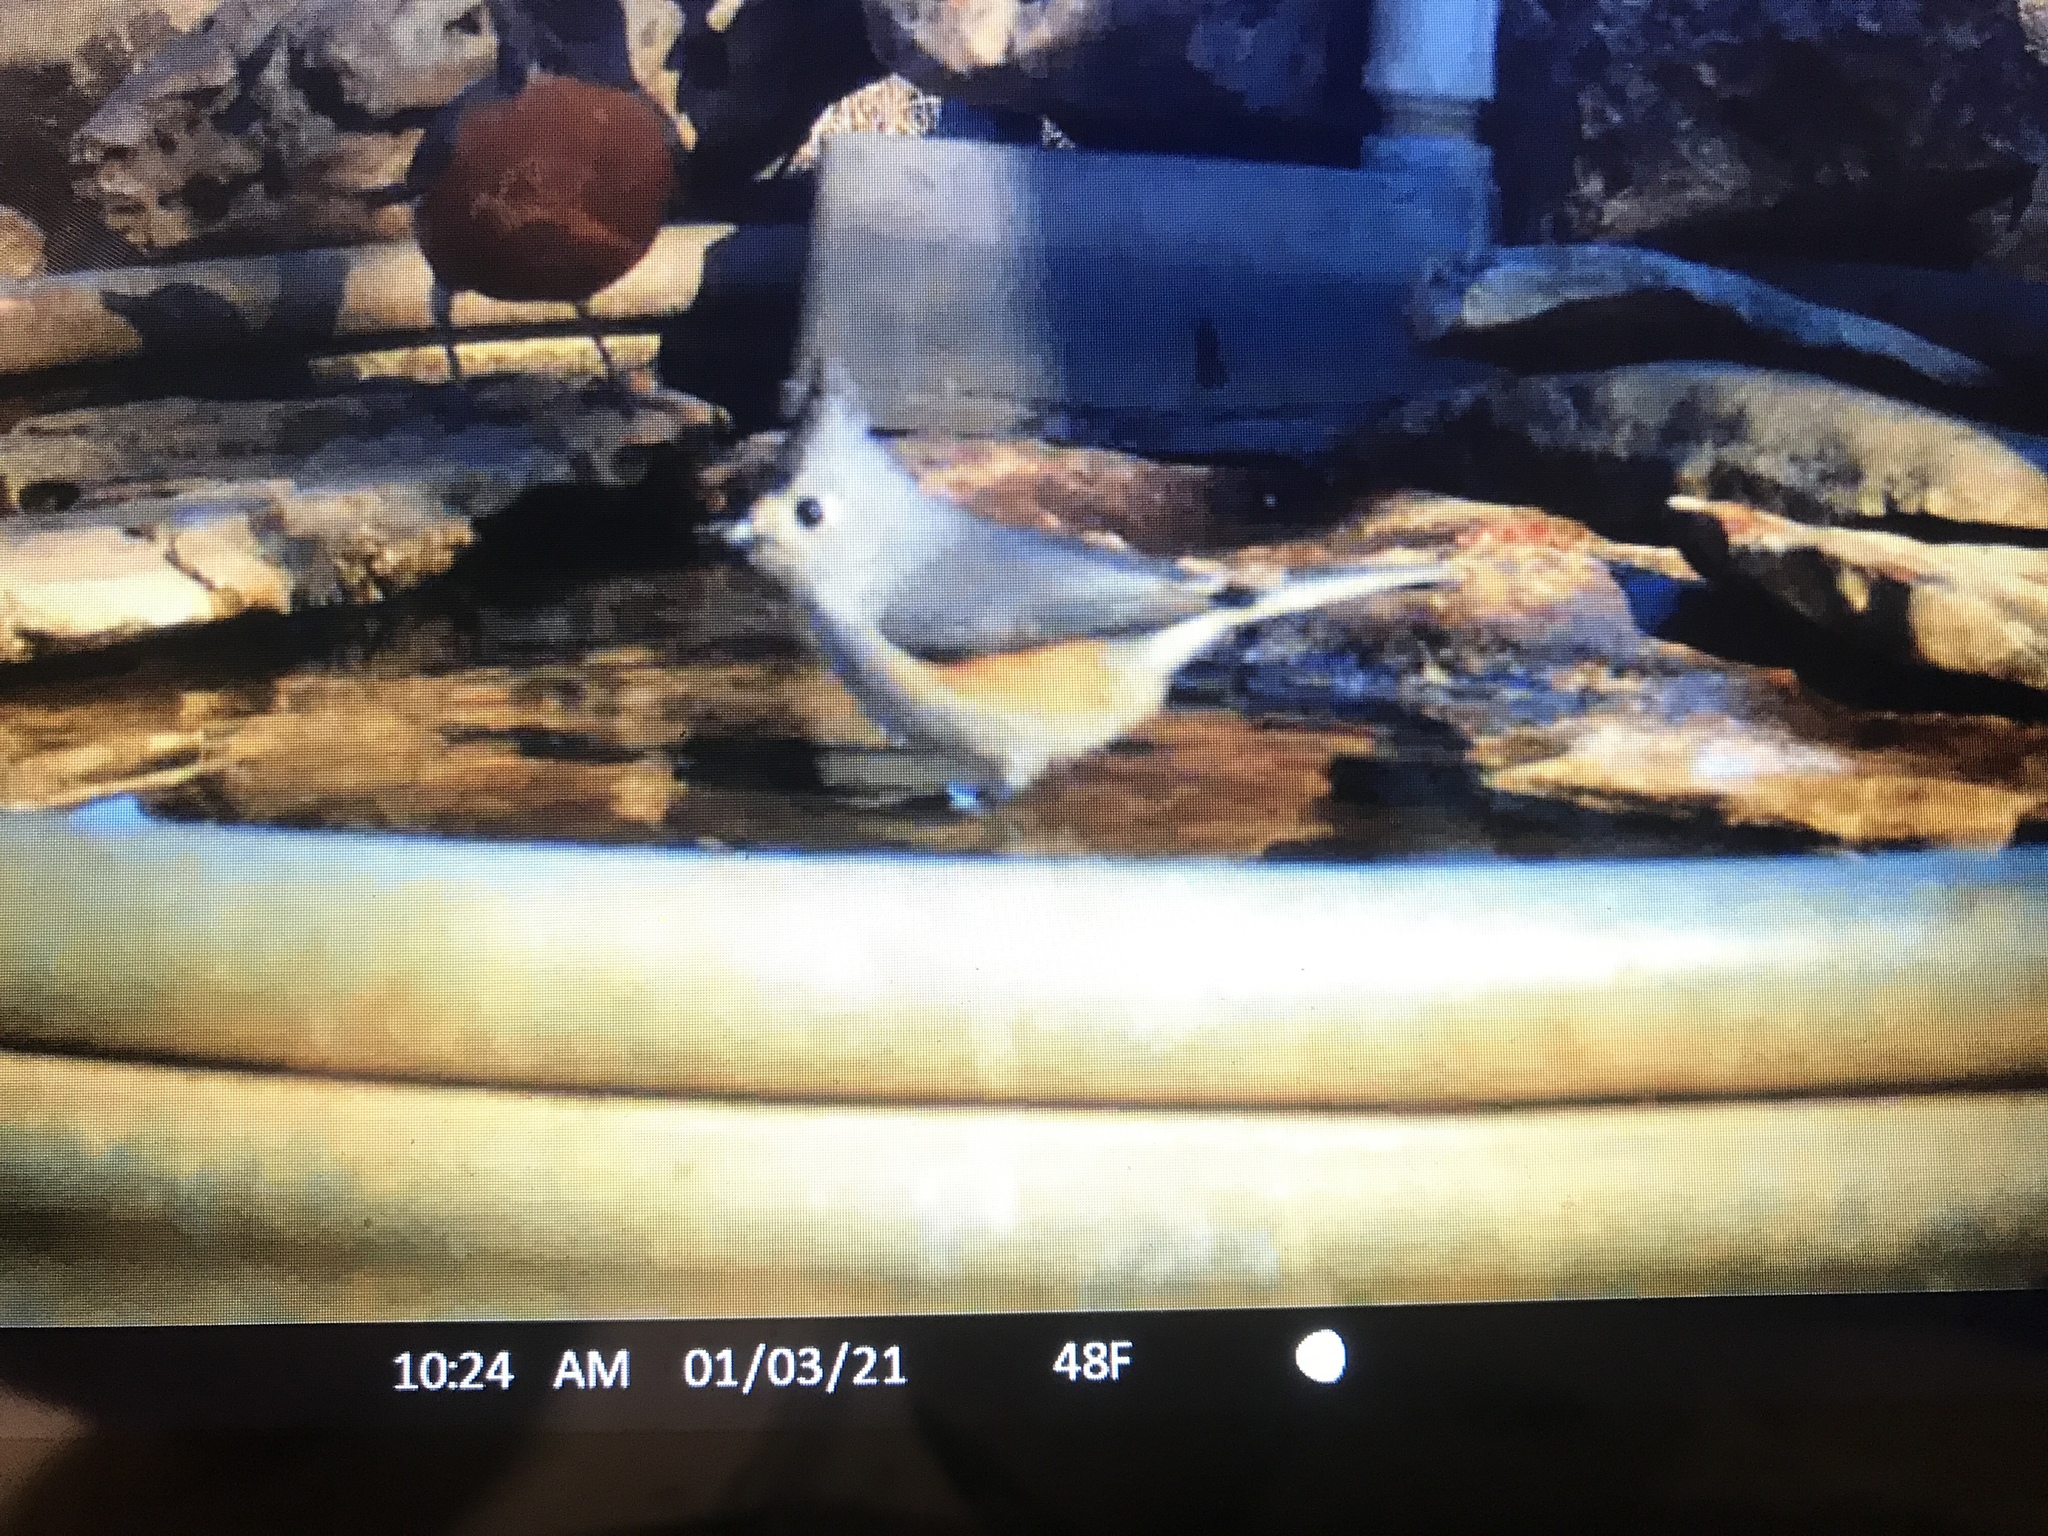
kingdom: Animalia
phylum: Chordata
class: Aves
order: Passeriformes
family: Paridae
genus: Baeolophus
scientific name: Baeolophus atricristatus
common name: Black-crested titmouse
